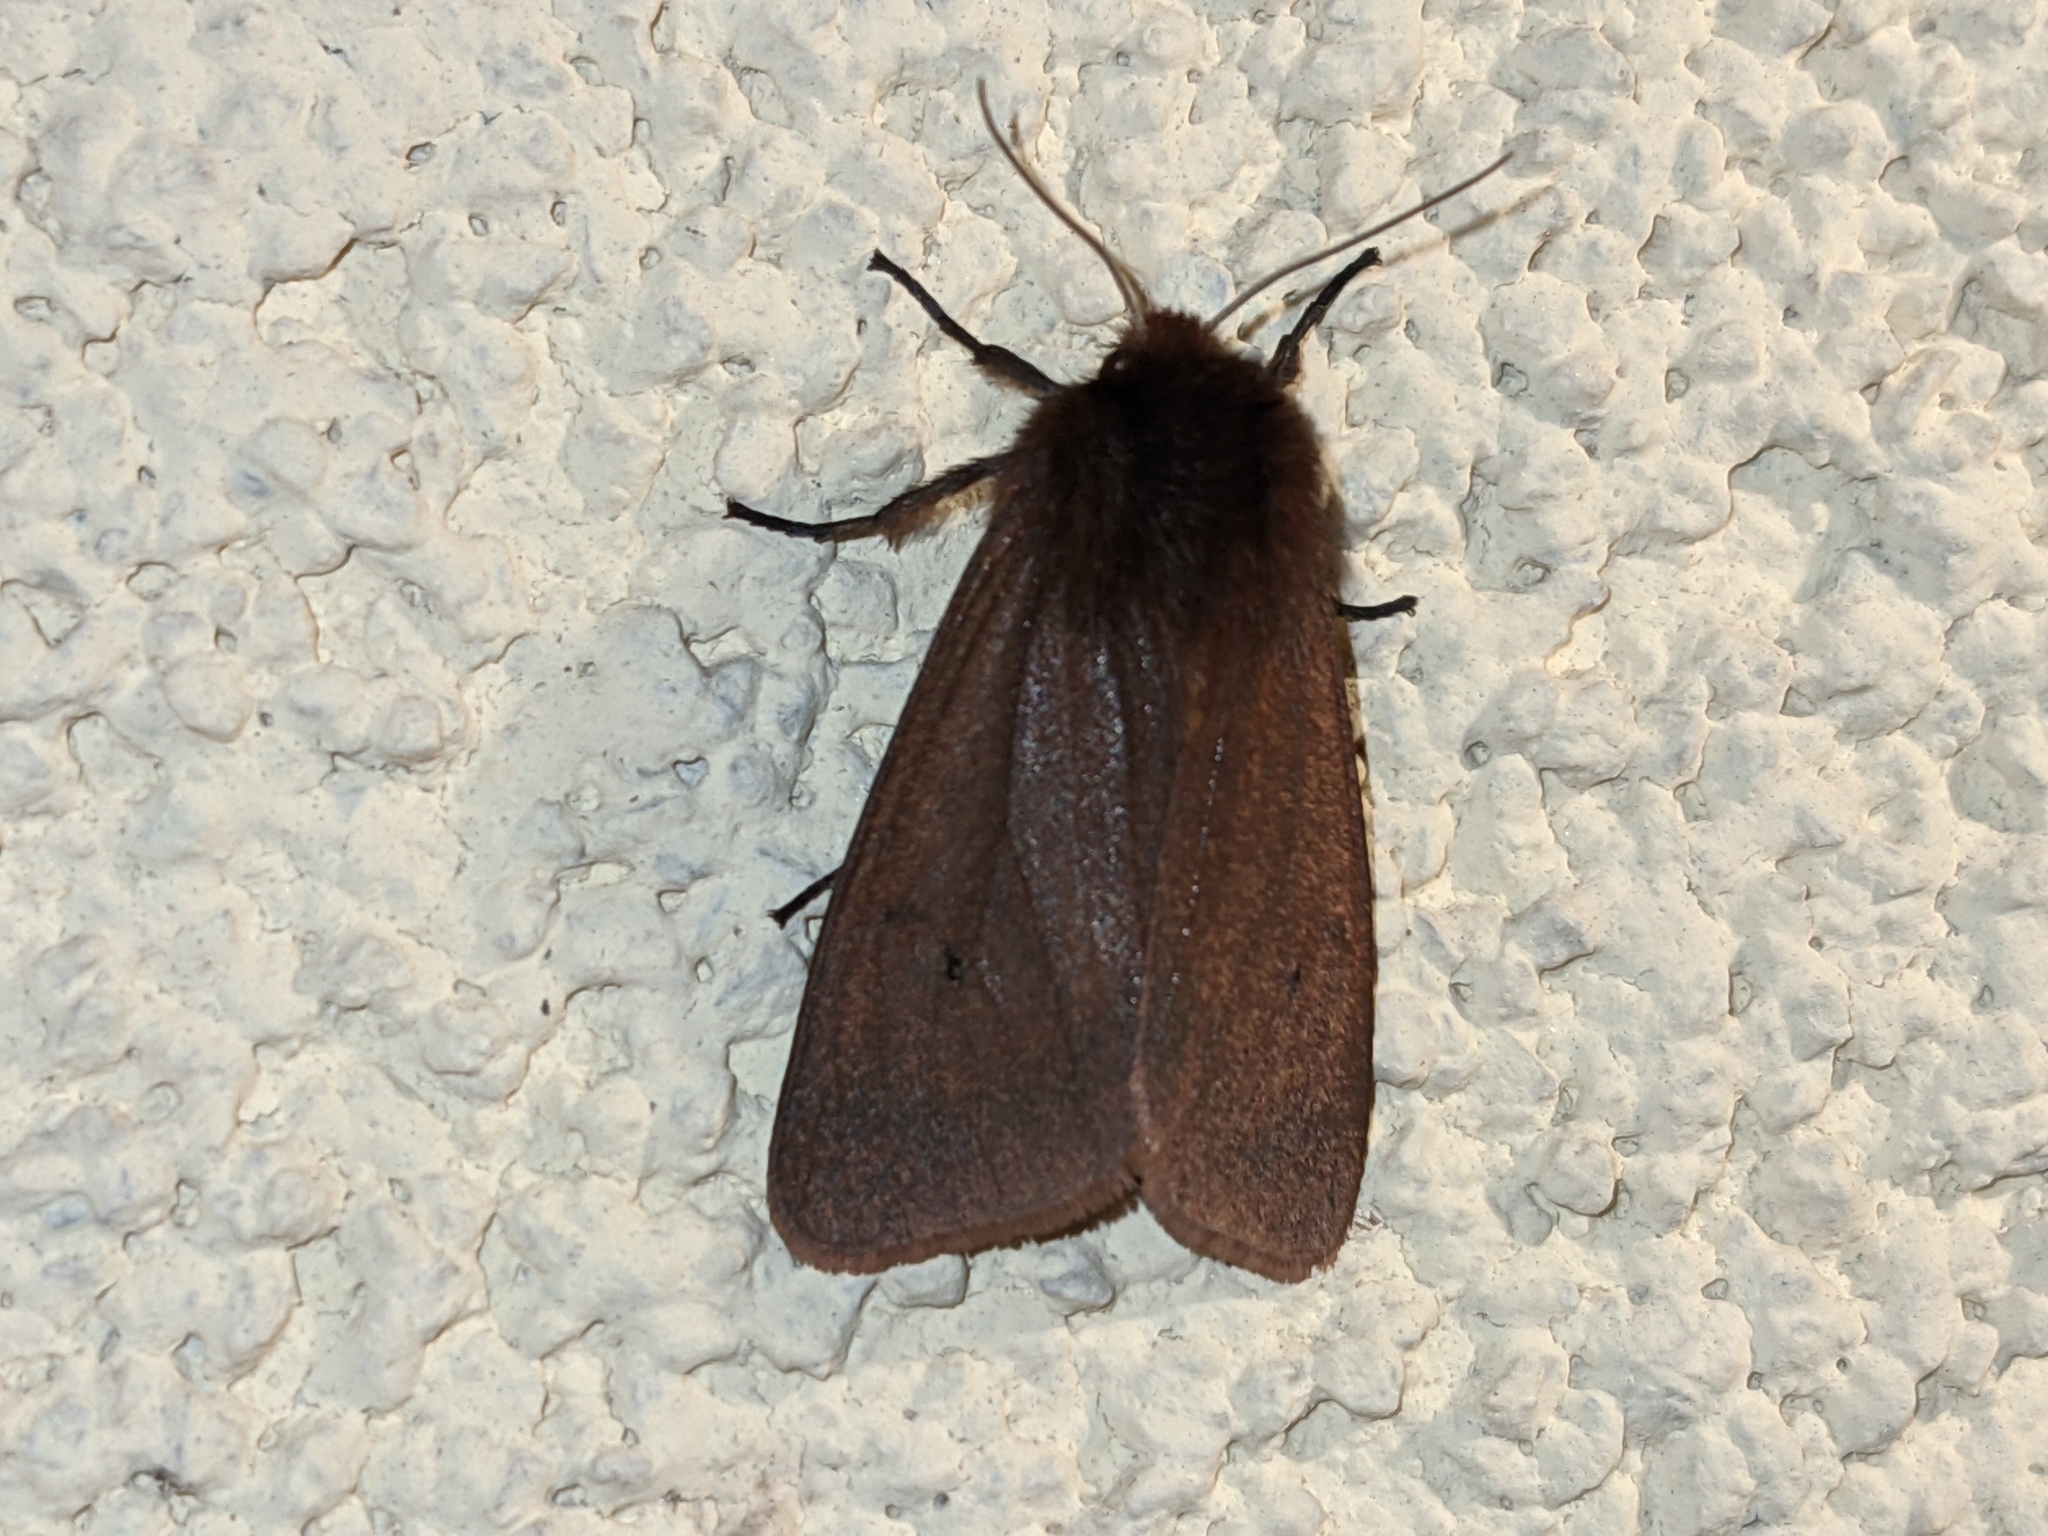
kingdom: Animalia
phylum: Arthropoda
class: Insecta
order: Lepidoptera
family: Erebidae
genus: Phragmatobia
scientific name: Phragmatobia fuliginosa
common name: Ruby tiger
